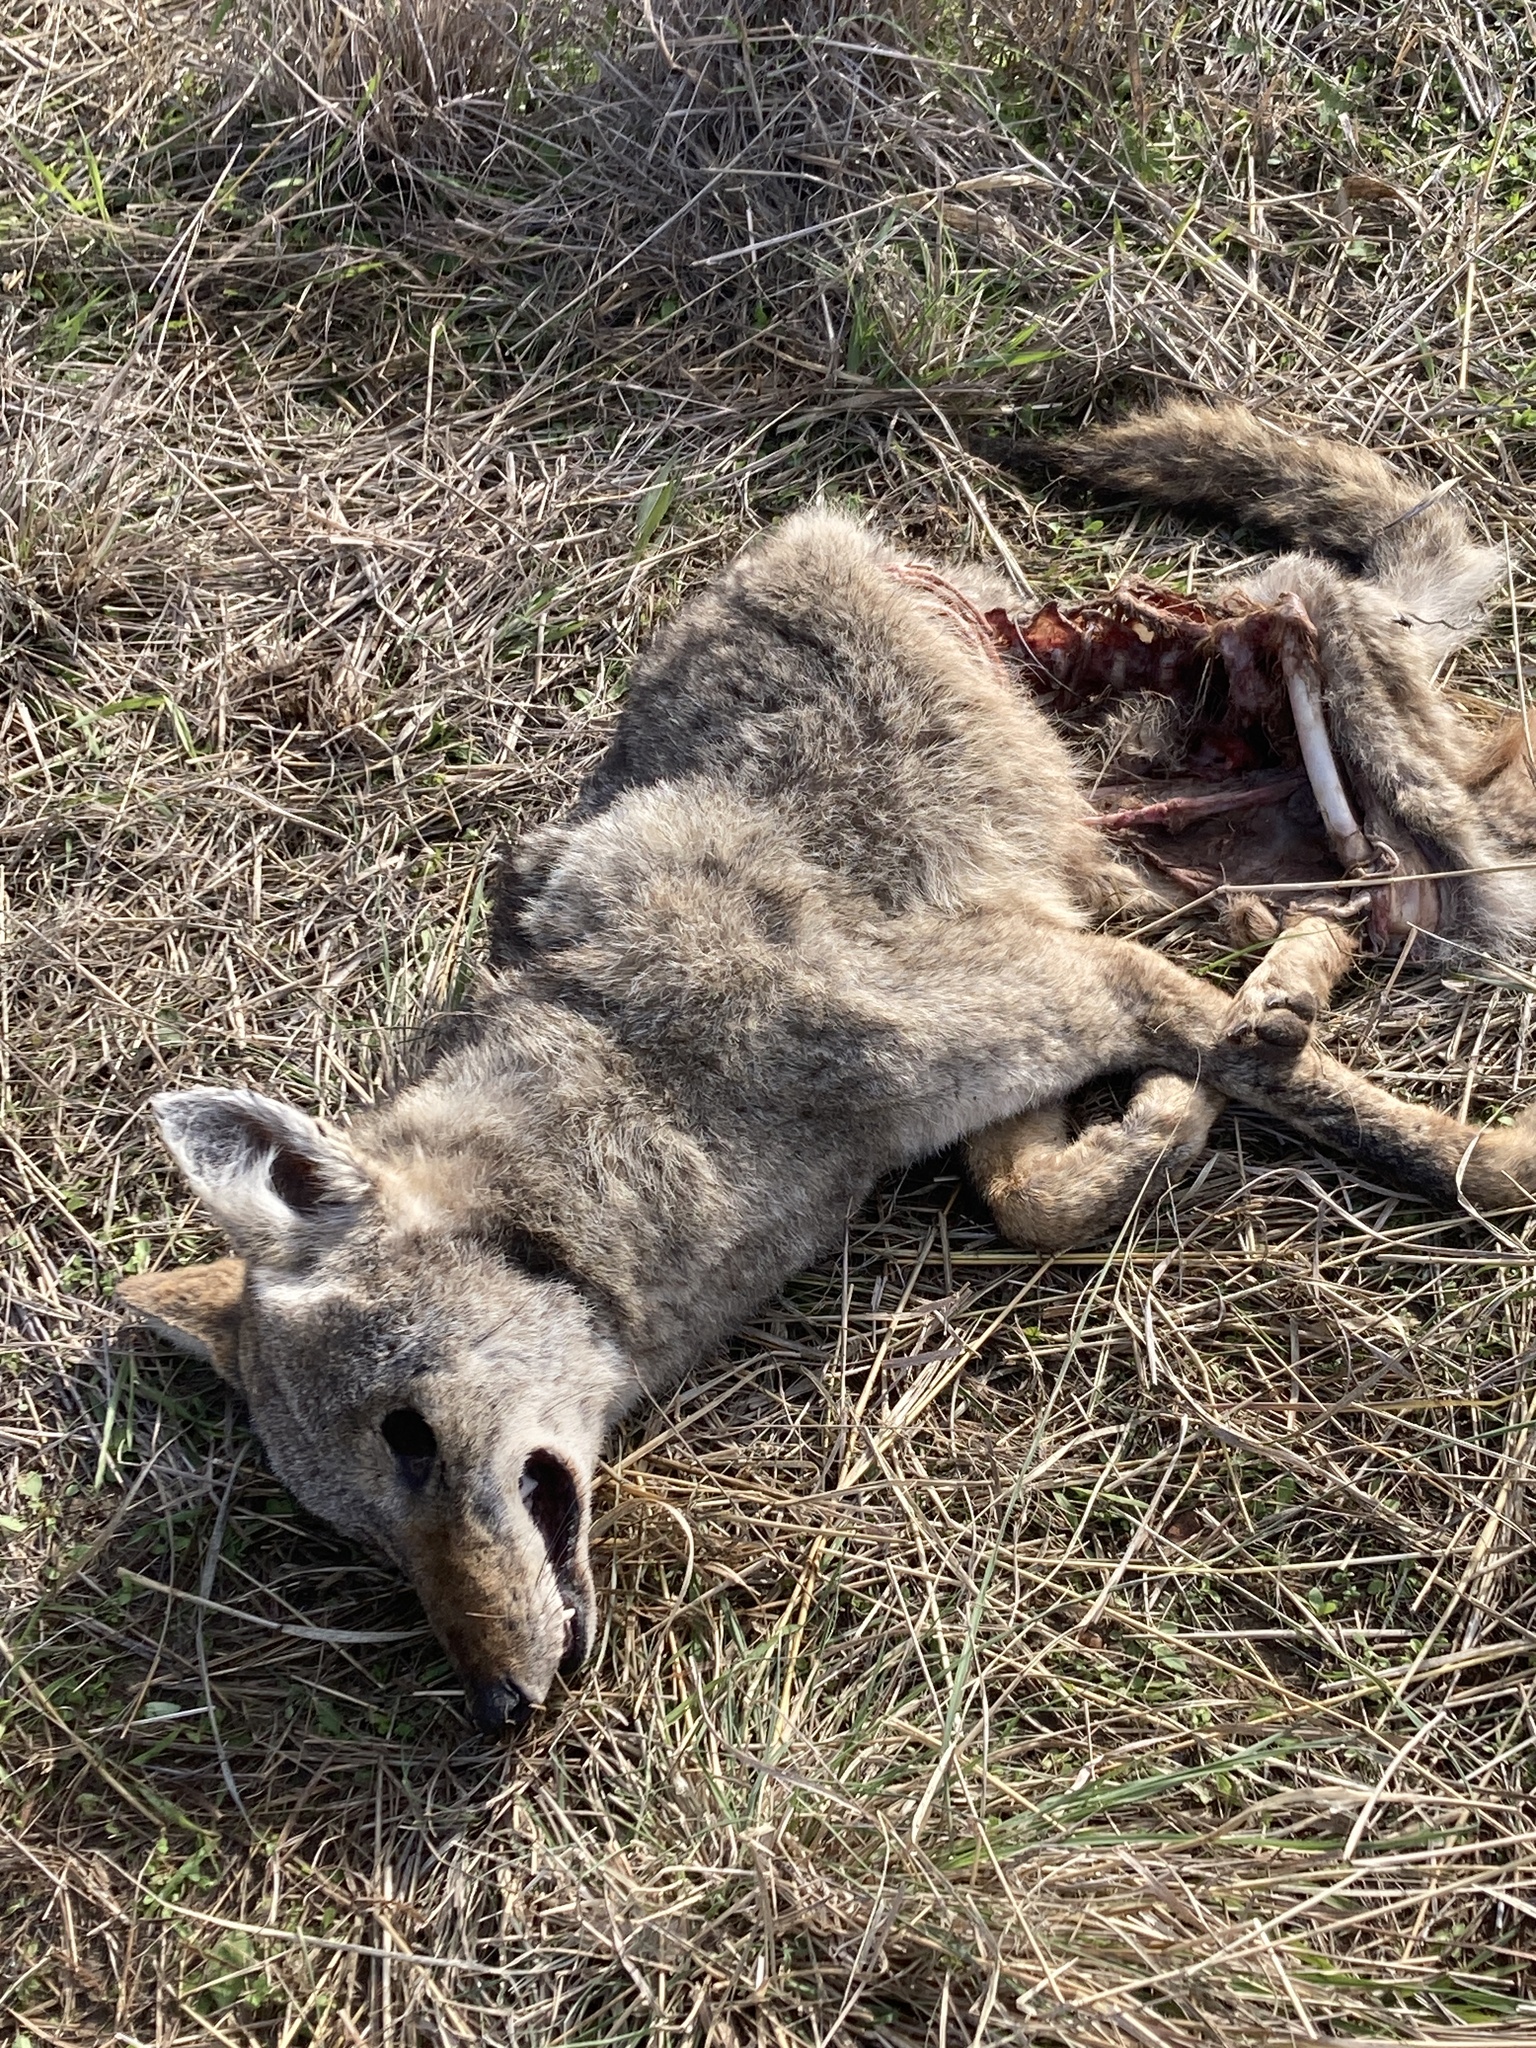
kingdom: Animalia
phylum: Chordata
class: Mammalia
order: Carnivora
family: Canidae
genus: Canis
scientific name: Canis latrans
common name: Coyote
